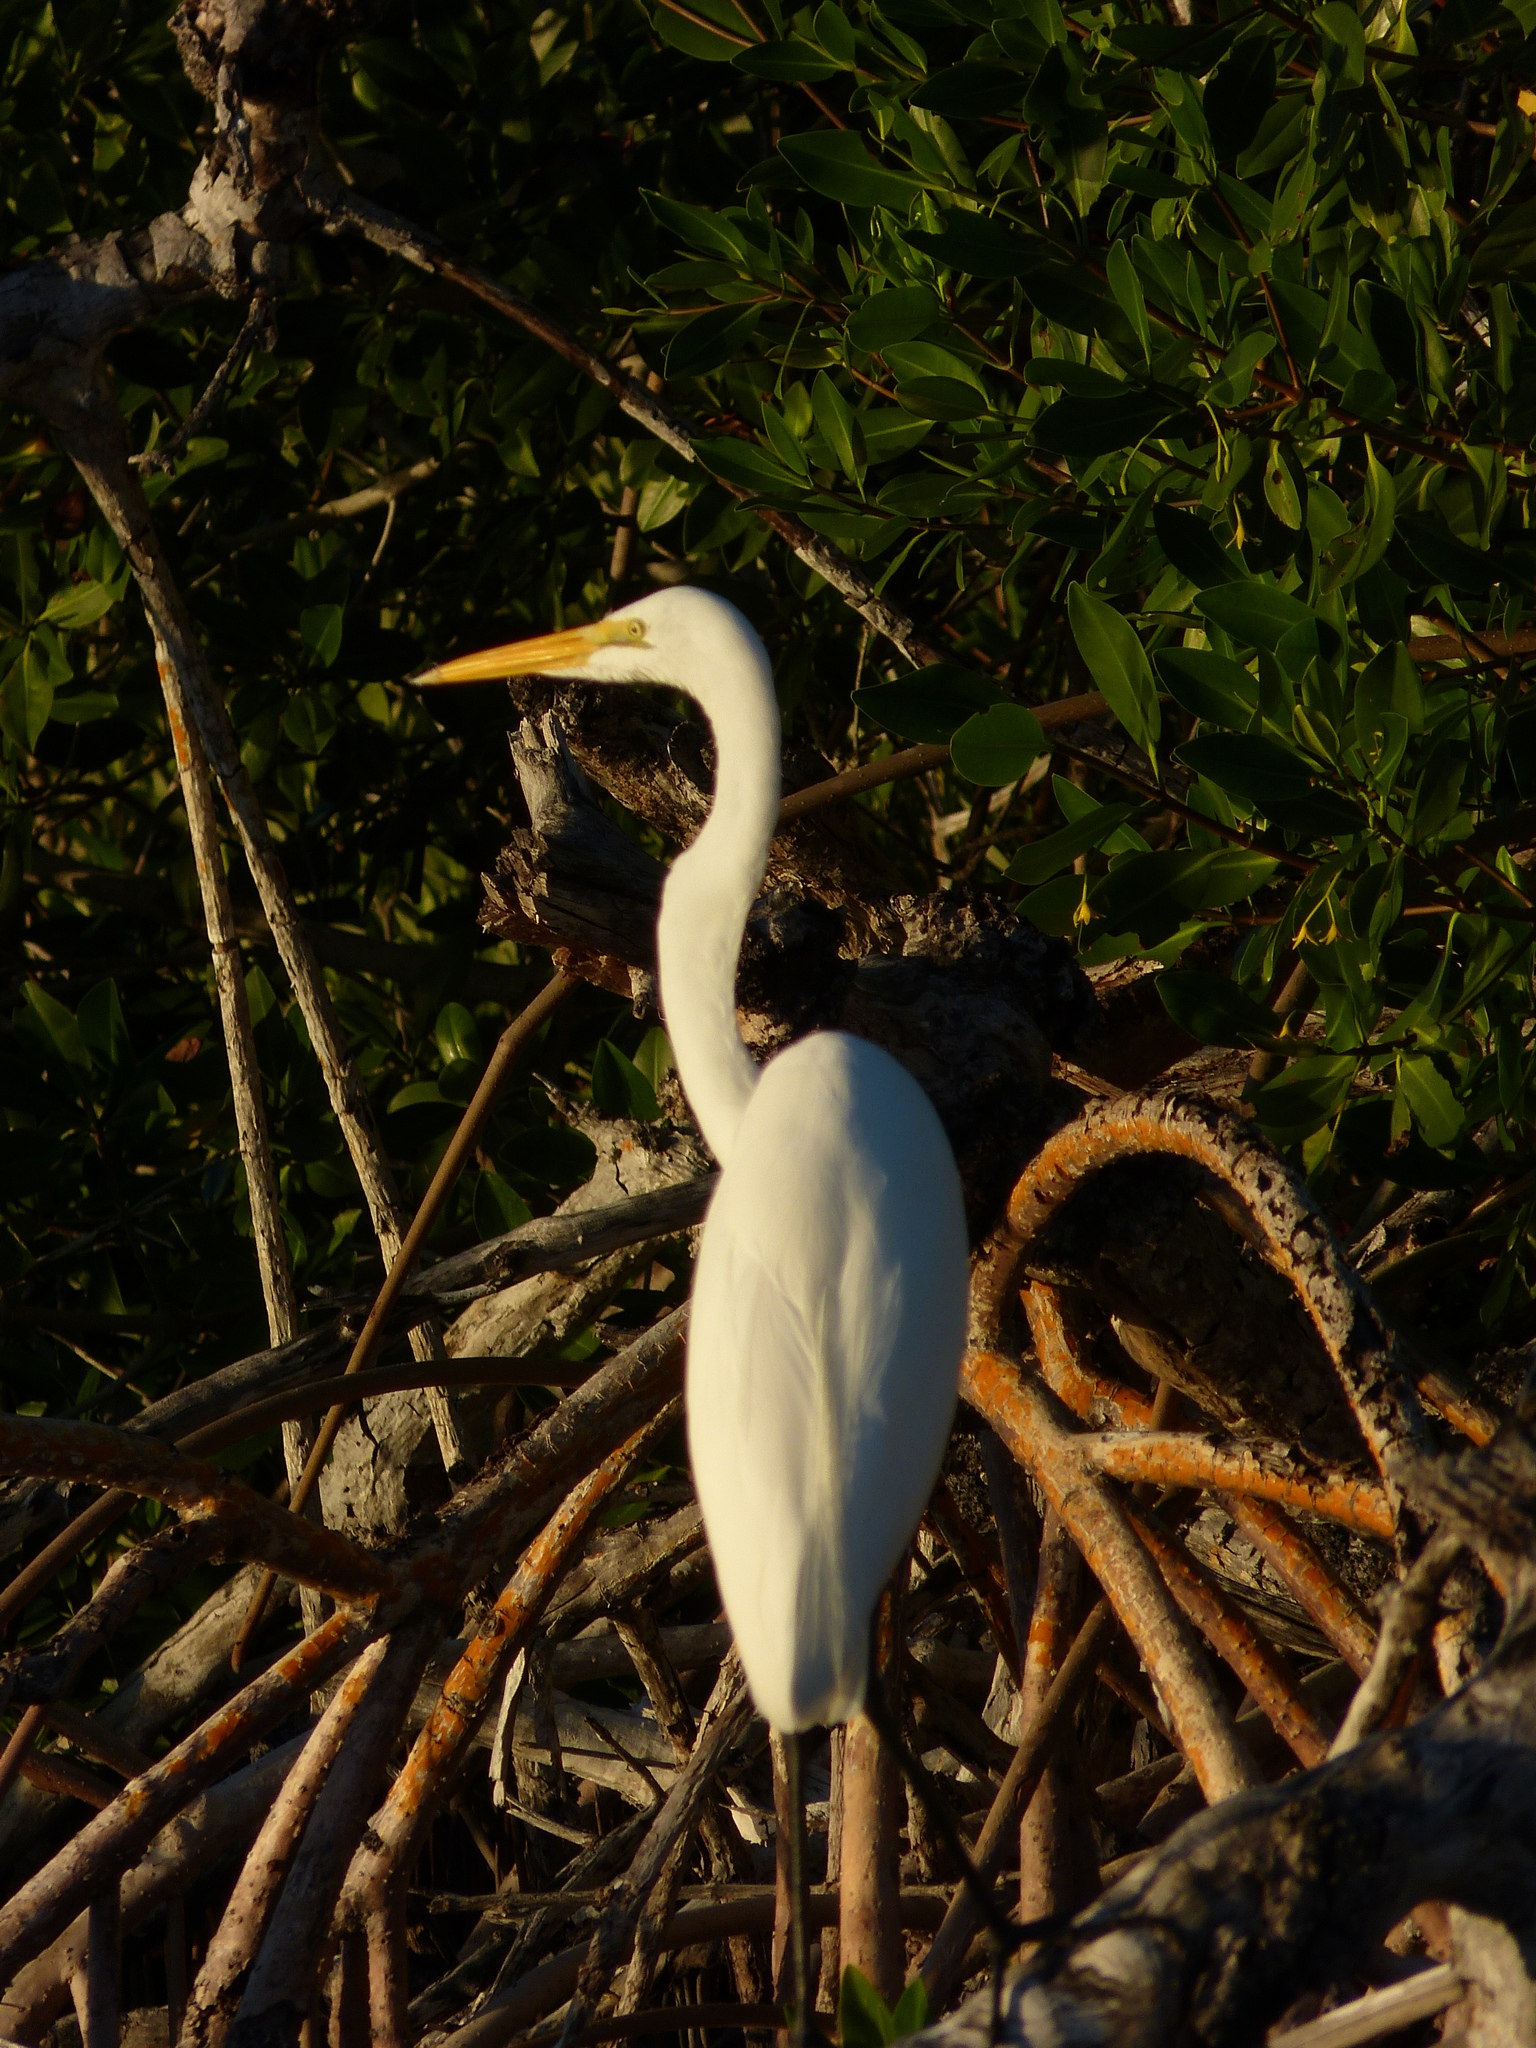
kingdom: Animalia
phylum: Chordata
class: Aves
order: Pelecaniformes
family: Ardeidae
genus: Ardea
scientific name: Ardea alba
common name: Great egret
